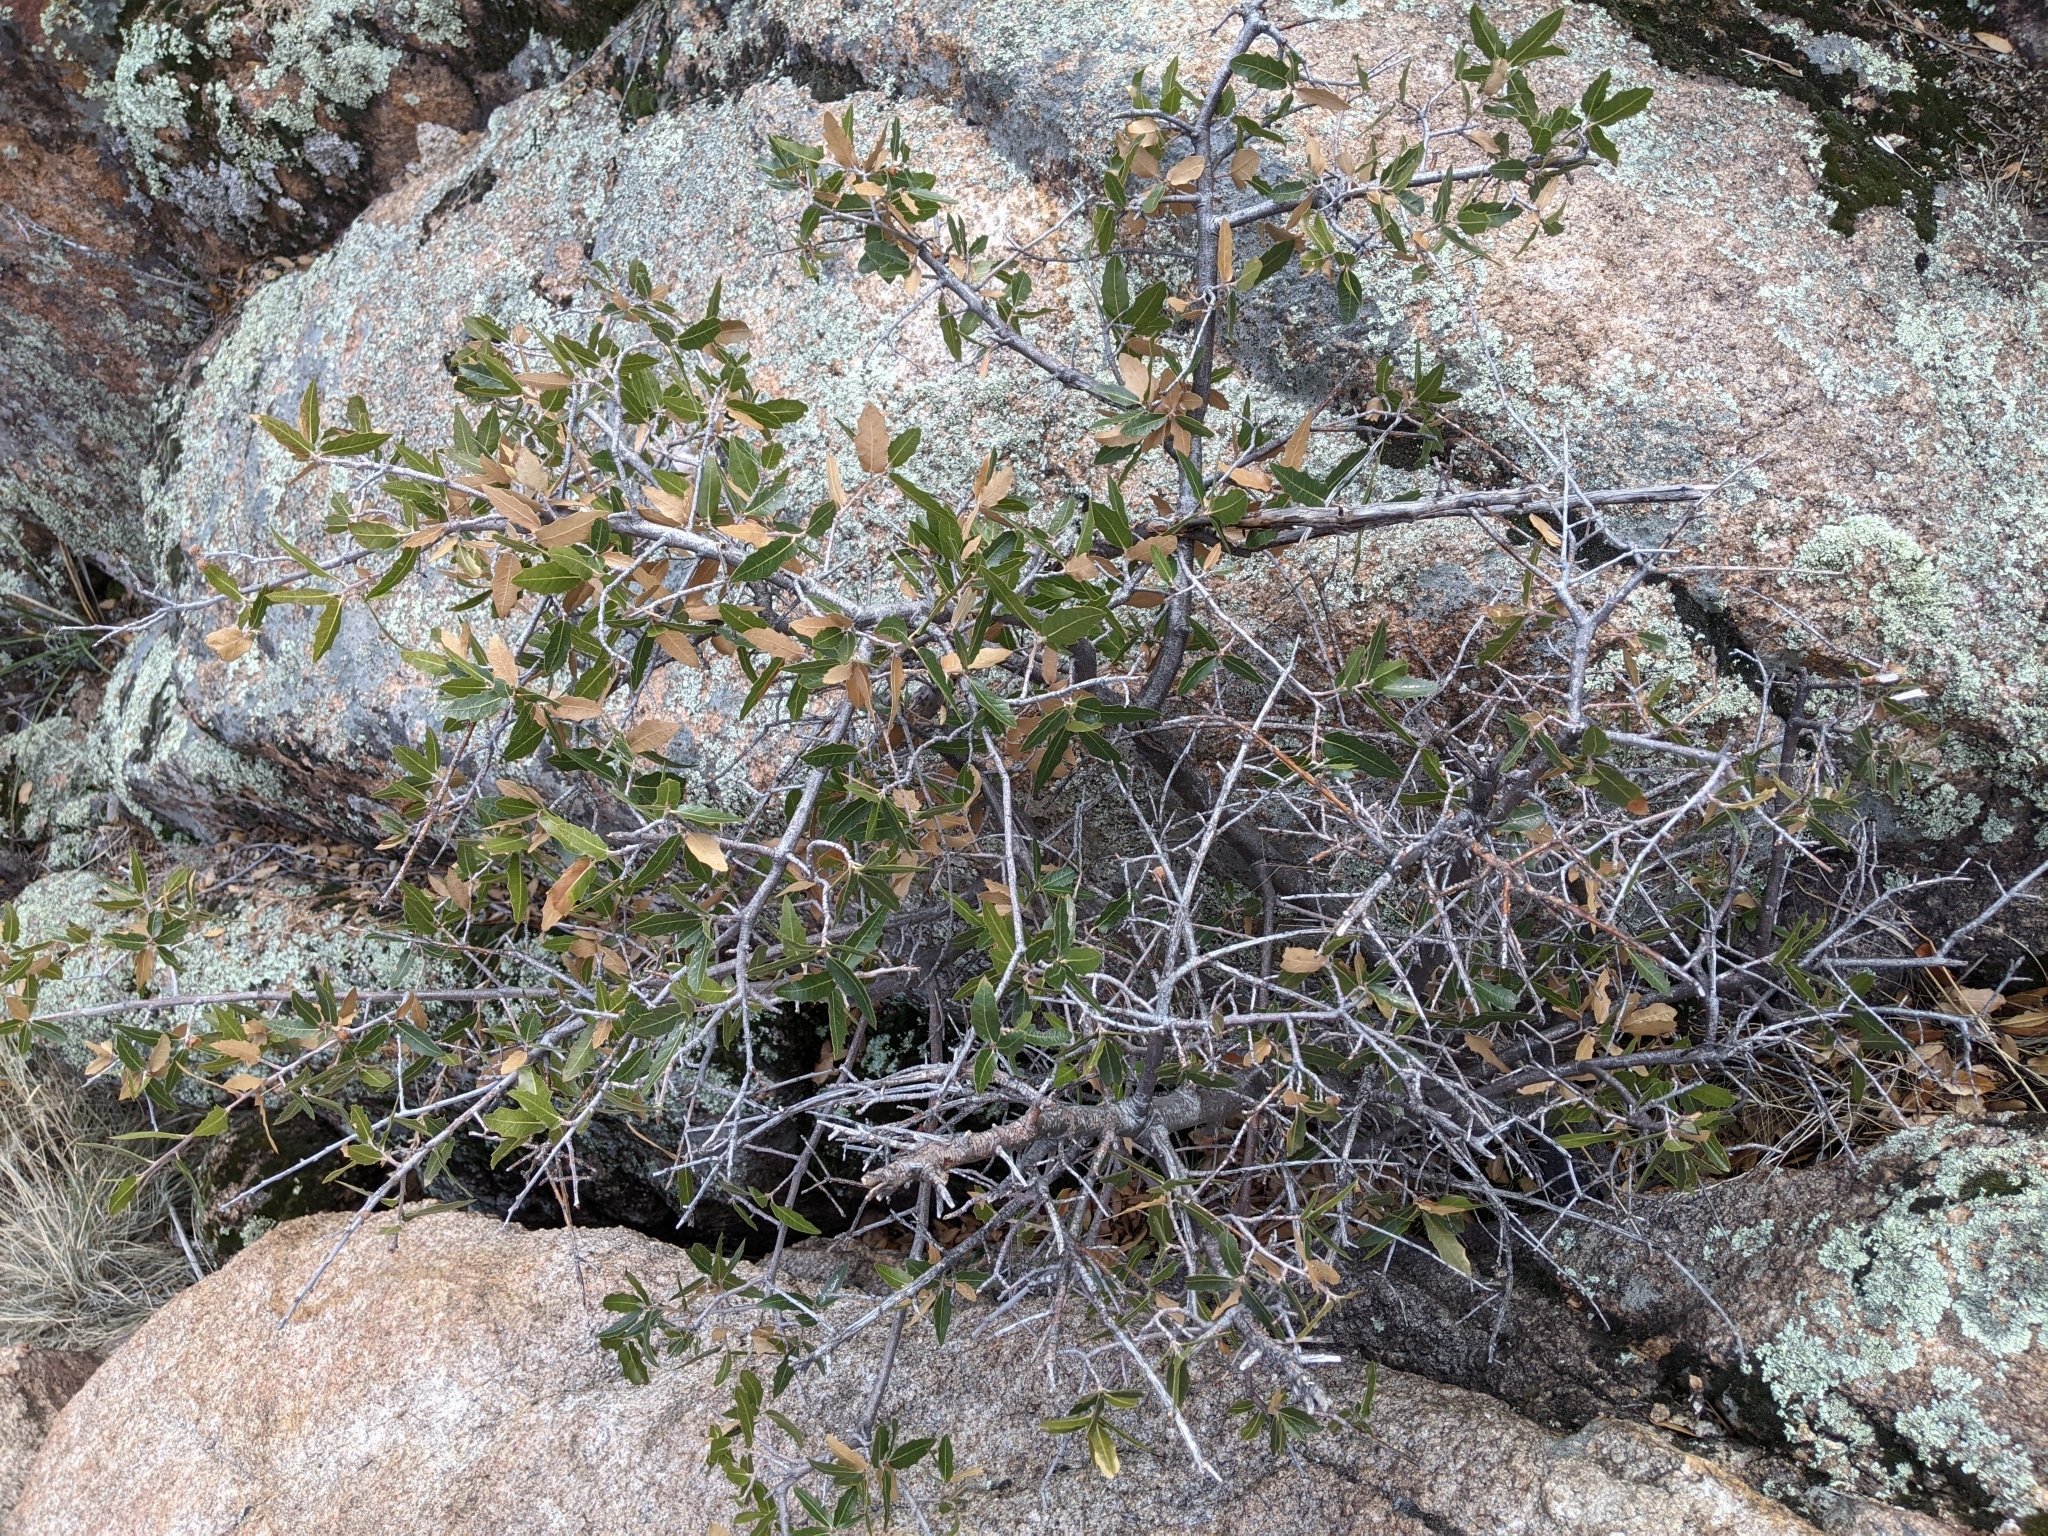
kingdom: Plantae
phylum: Tracheophyta
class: Magnoliopsida
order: Fagales
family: Fagaceae
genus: Quercus
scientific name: Quercus emoryi
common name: Emory oak
